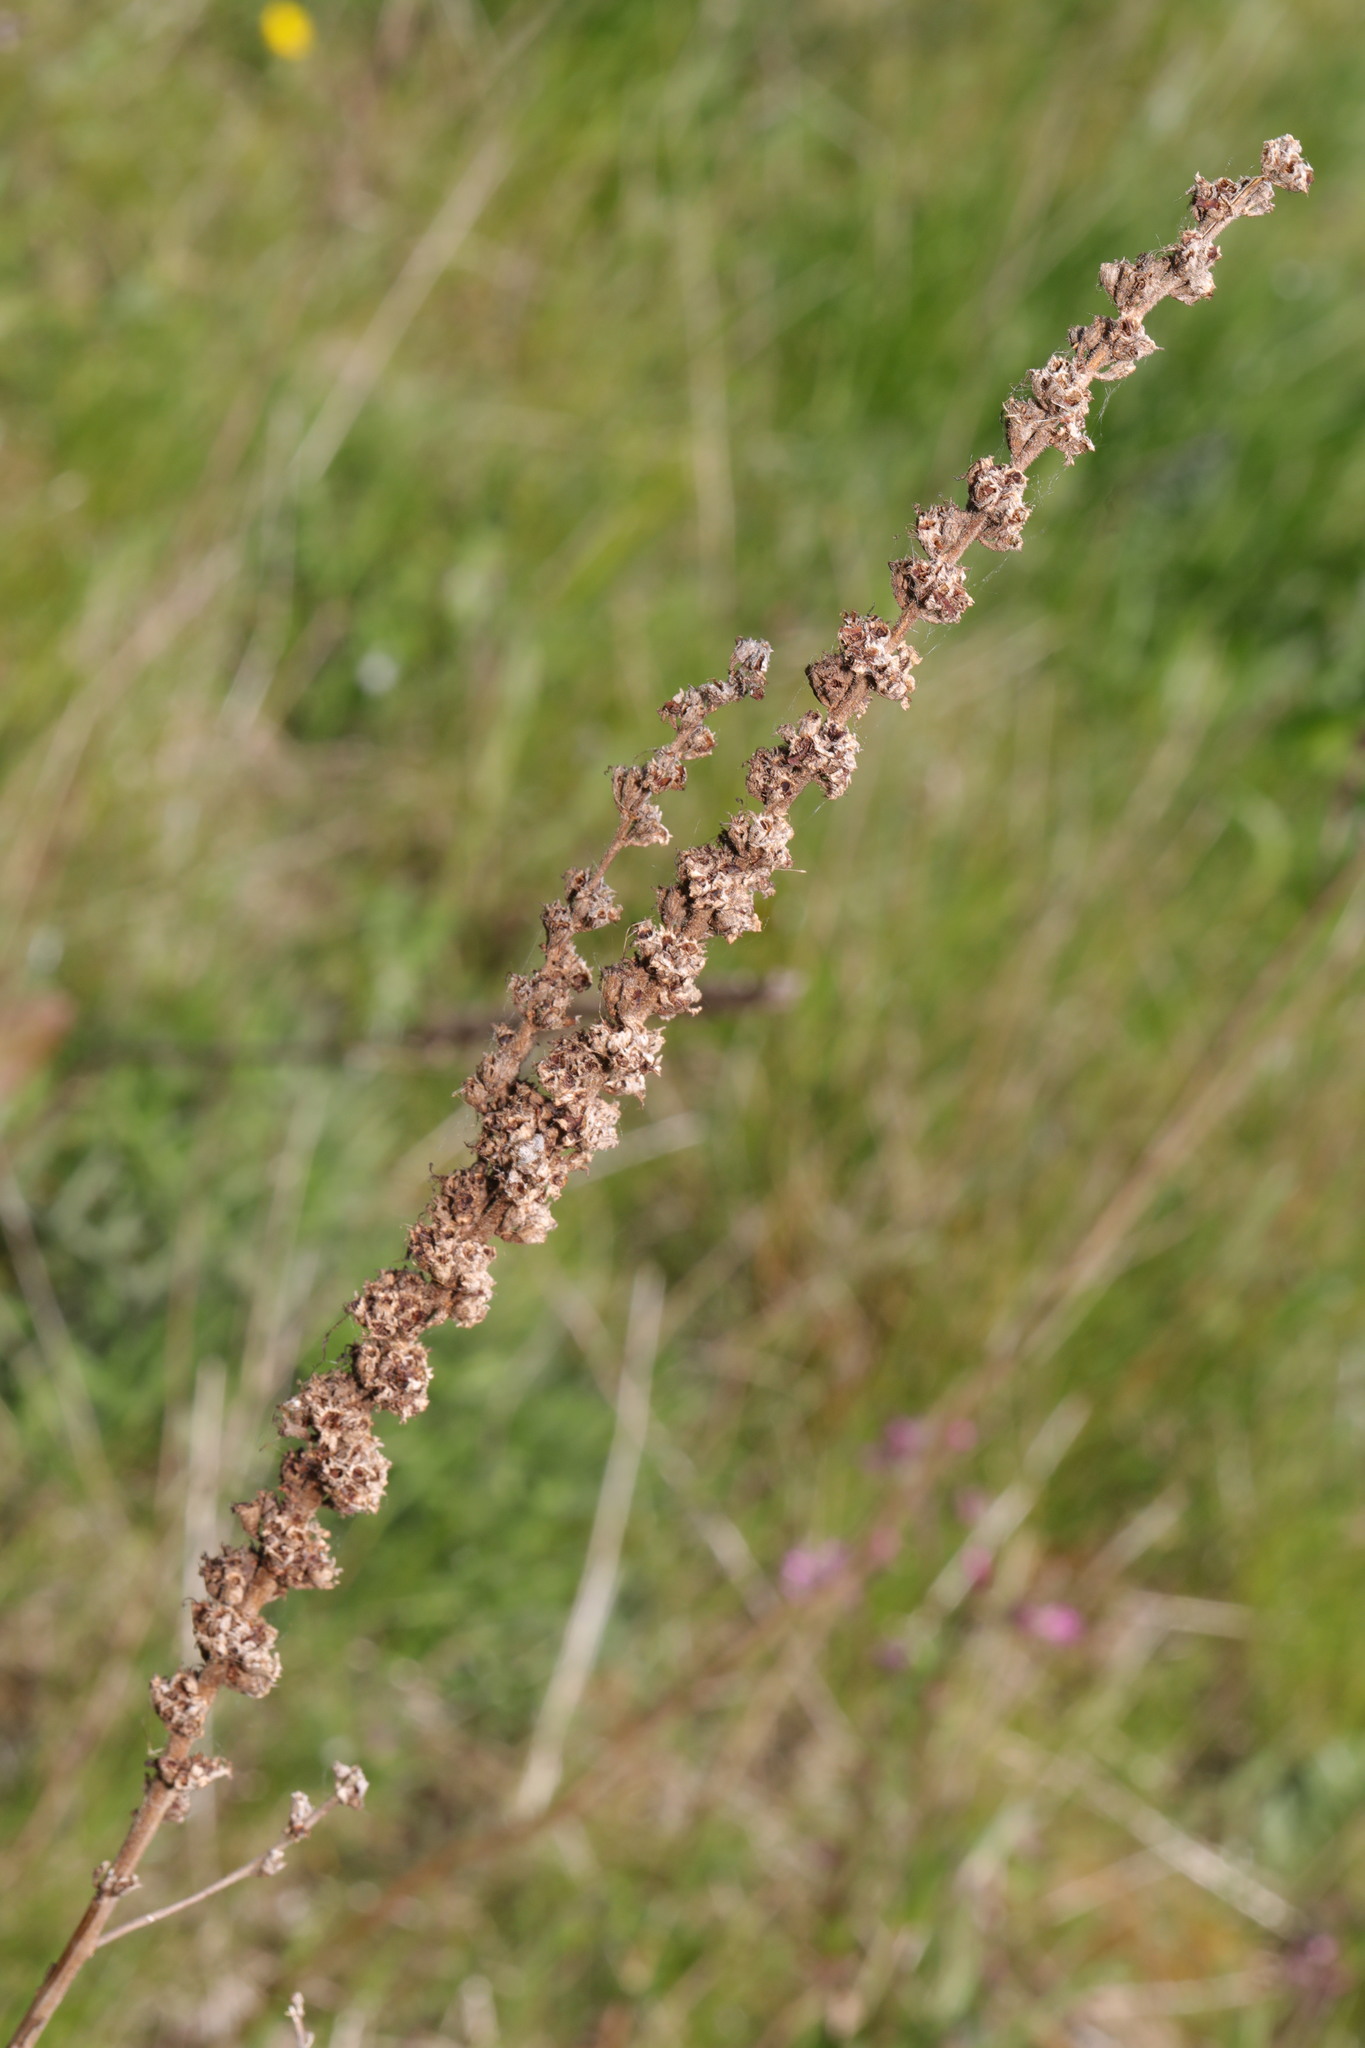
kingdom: Plantae
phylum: Tracheophyta
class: Magnoliopsida
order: Myrtales
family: Lythraceae
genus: Lythrum
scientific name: Lythrum salicaria
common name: Purple loosestrife
